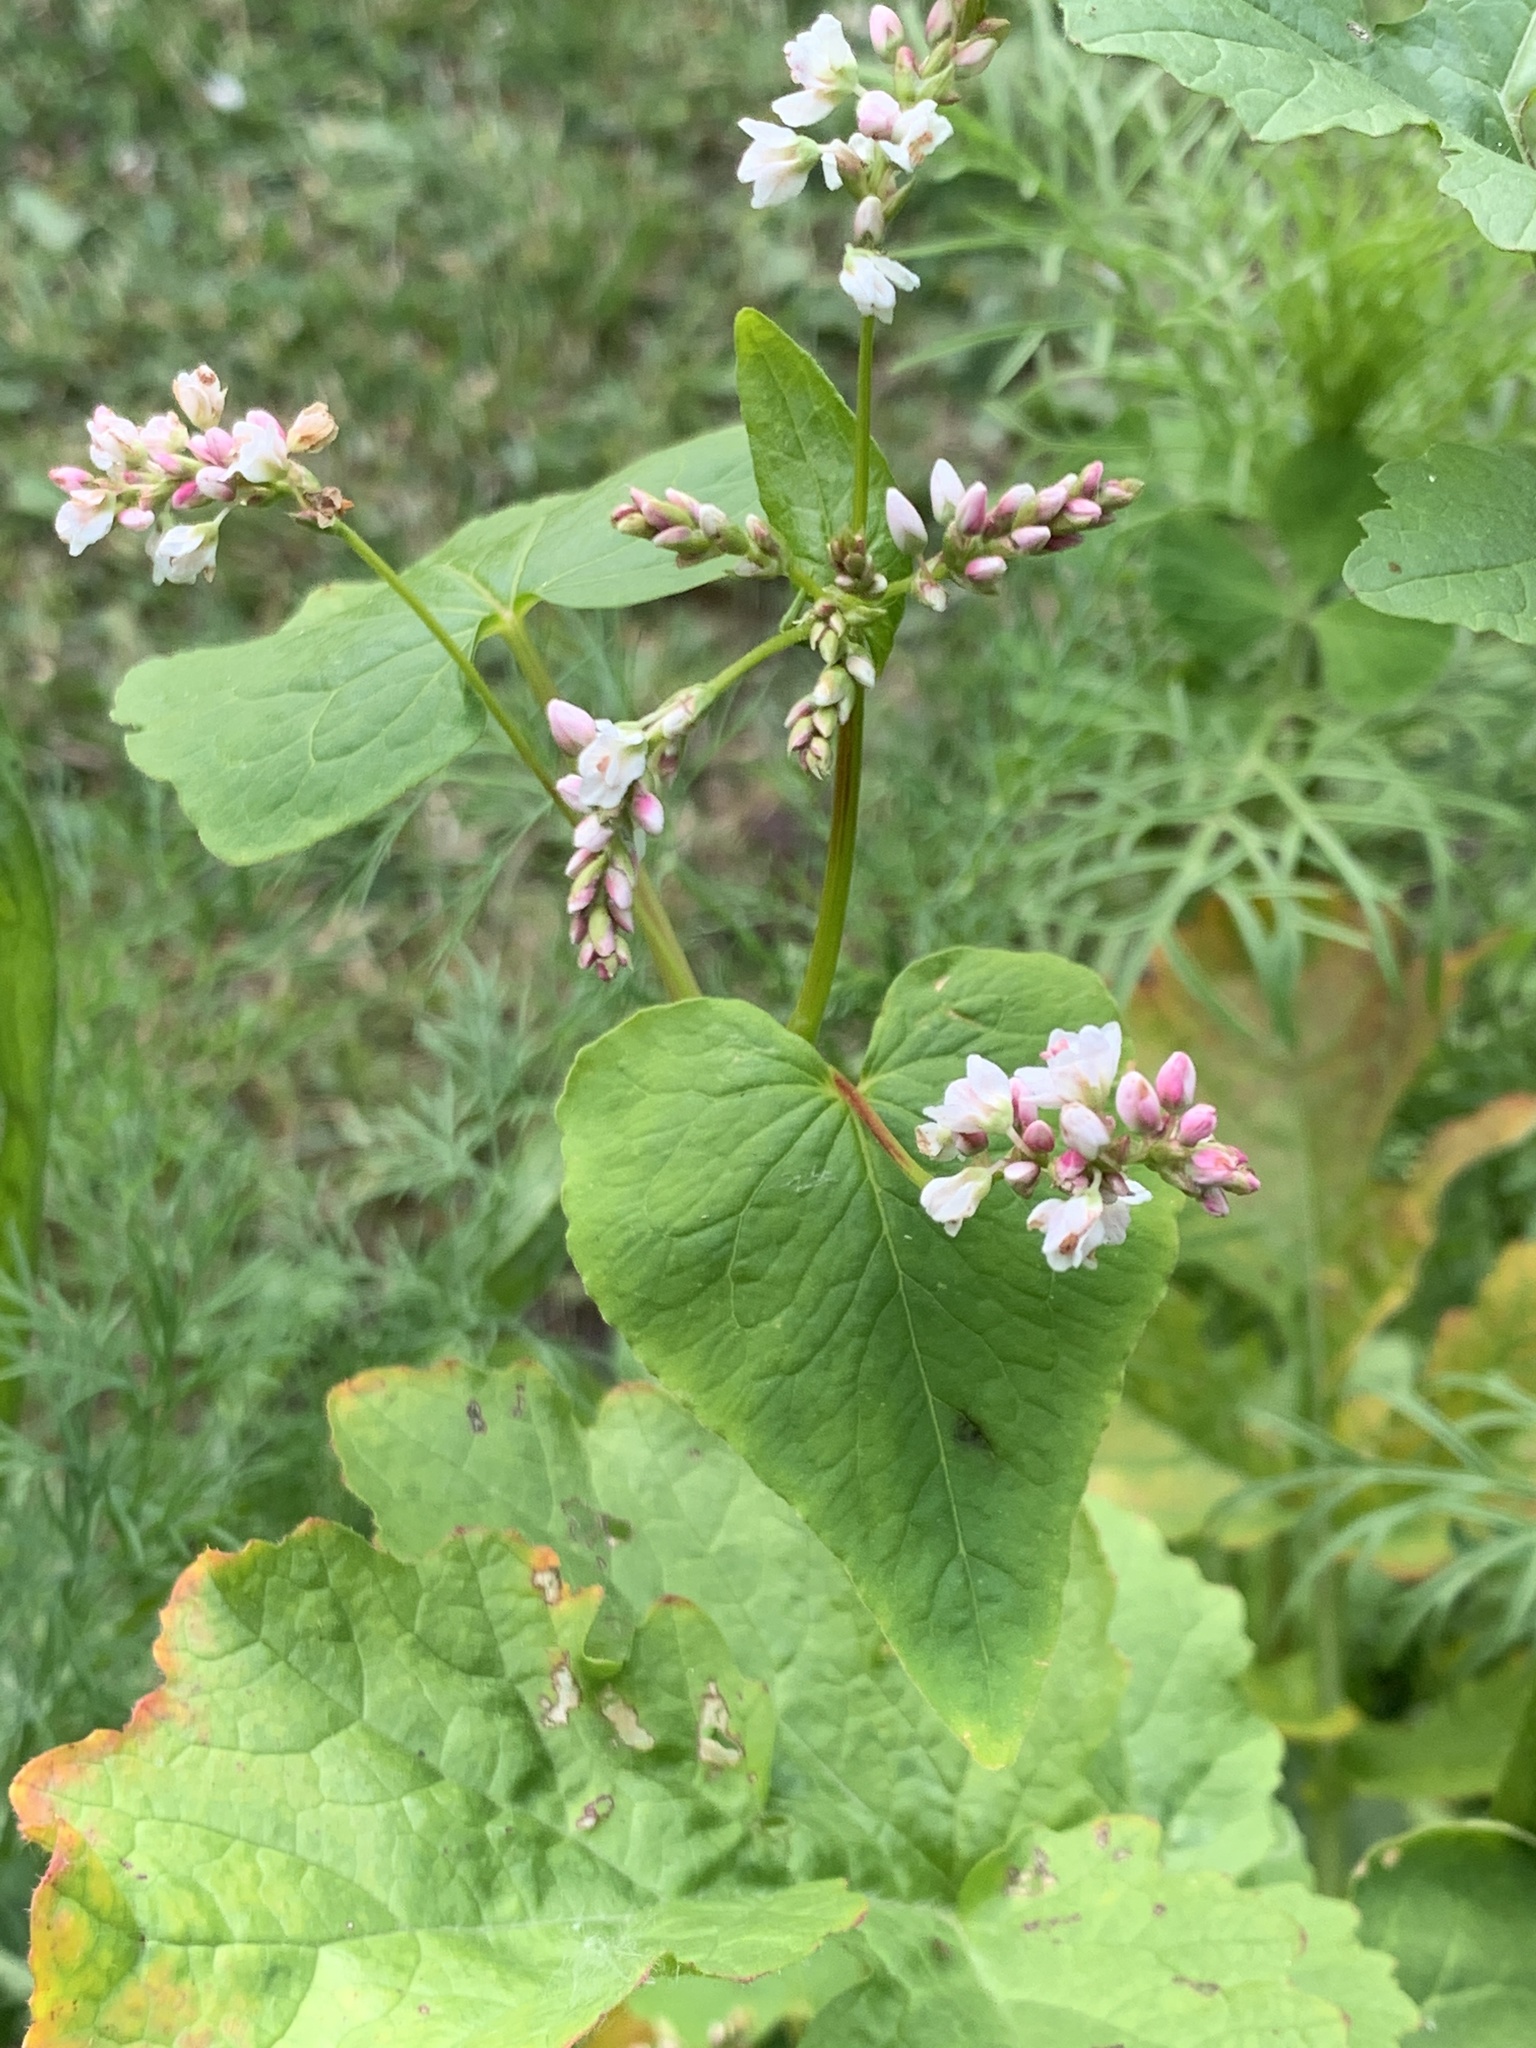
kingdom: Plantae
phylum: Tracheophyta
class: Magnoliopsida
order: Caryophyllales
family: Polygonaceae
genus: Fagopyrum
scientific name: Fagopyrum esculentum
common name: Buckwheat
